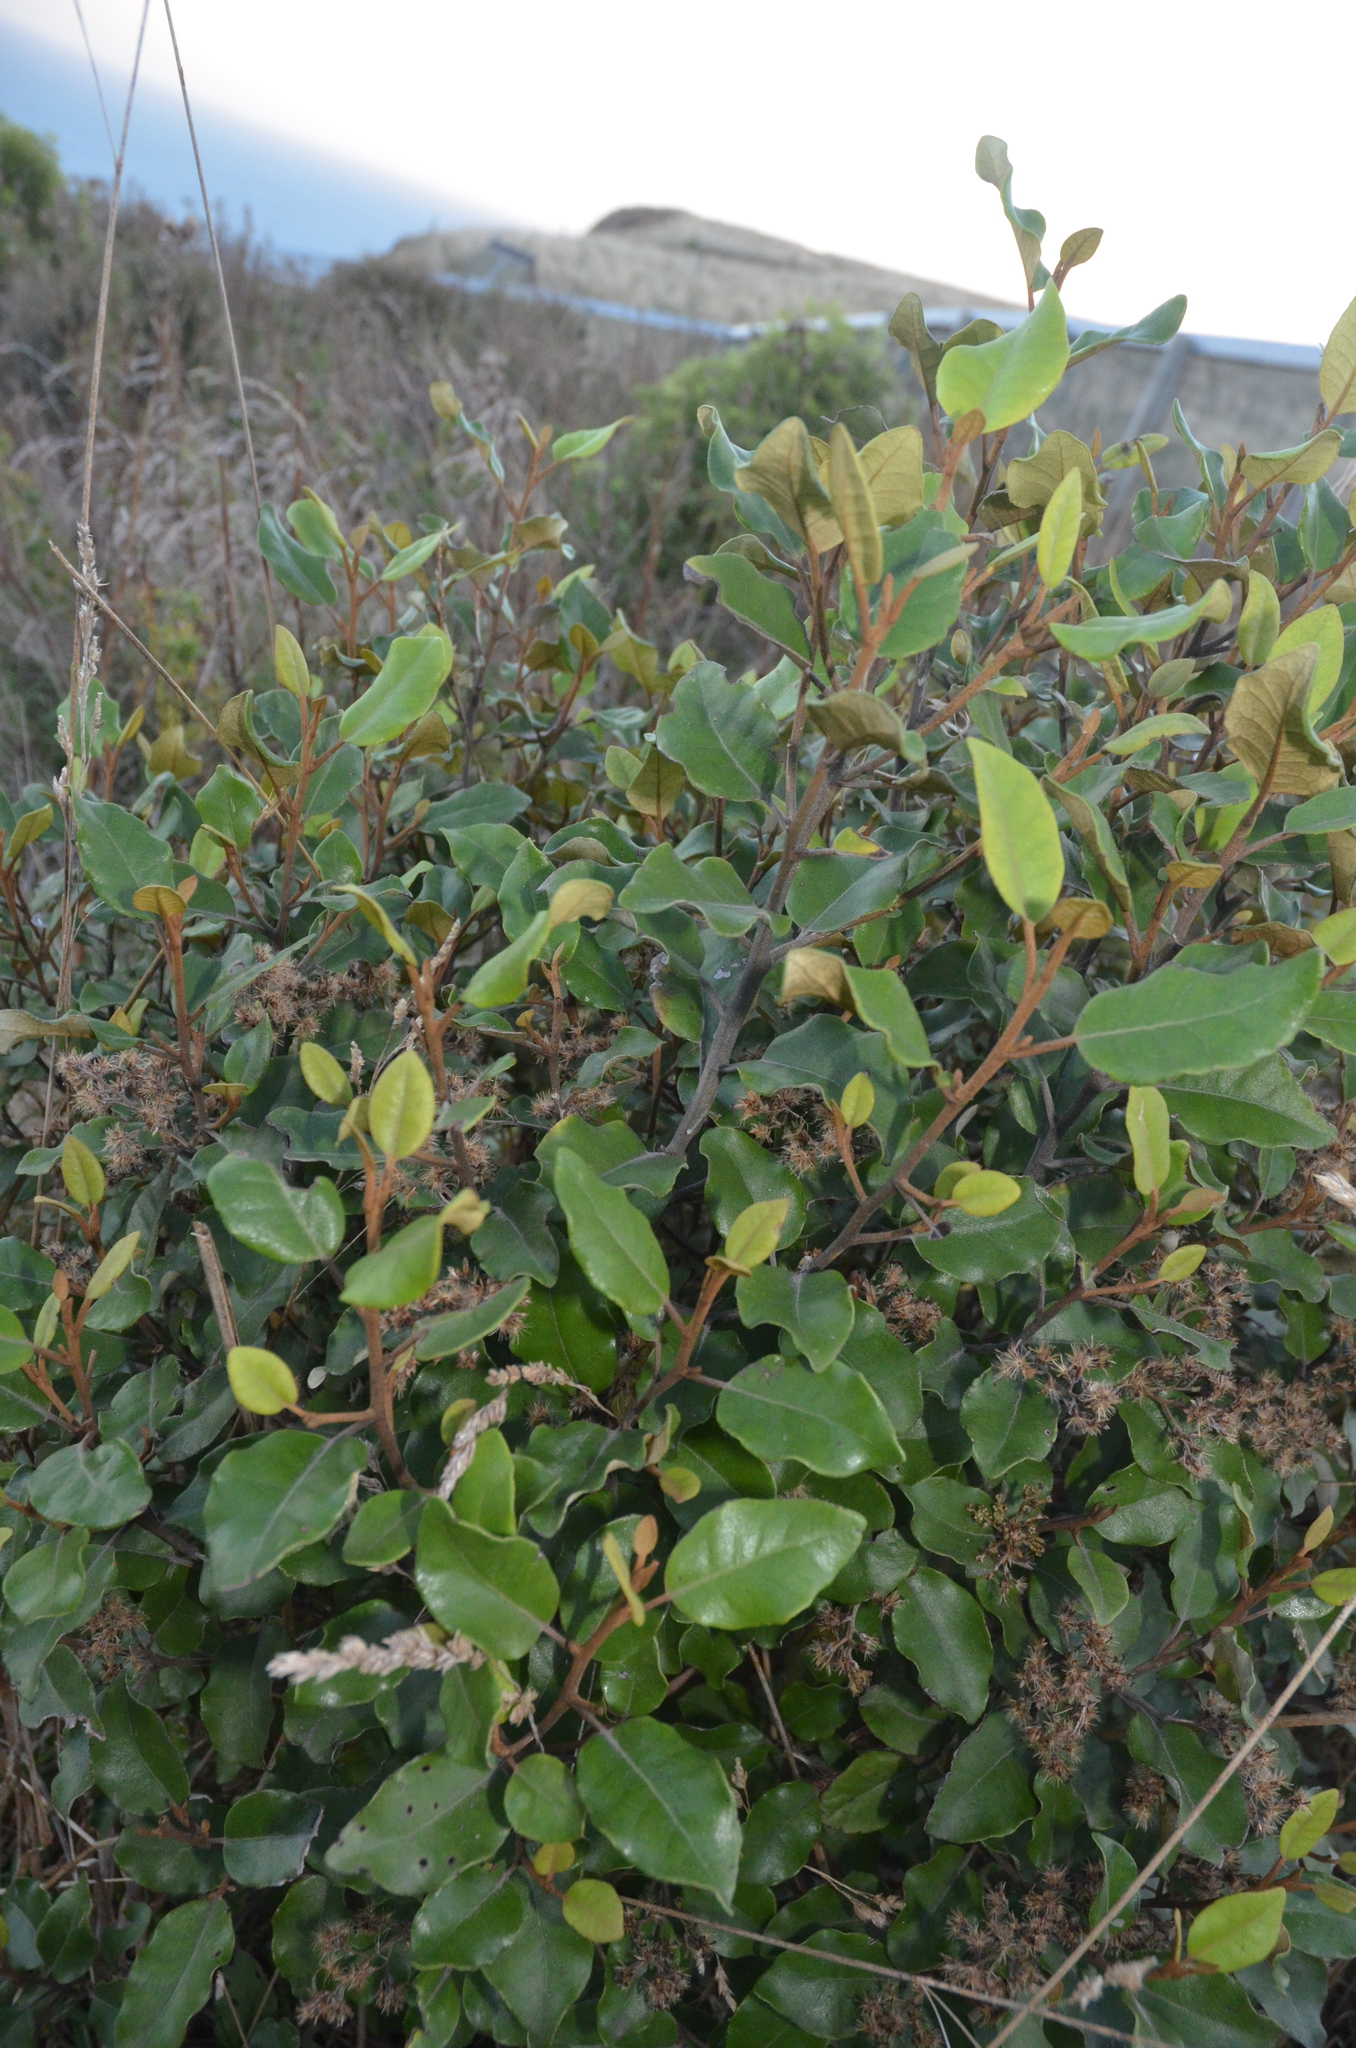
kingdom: Plantae
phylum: Tracheophyta
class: Magnoliopsida
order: Asterales
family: Asteraceae
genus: Olearia
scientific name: Olearia paniculata
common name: Akiraho
